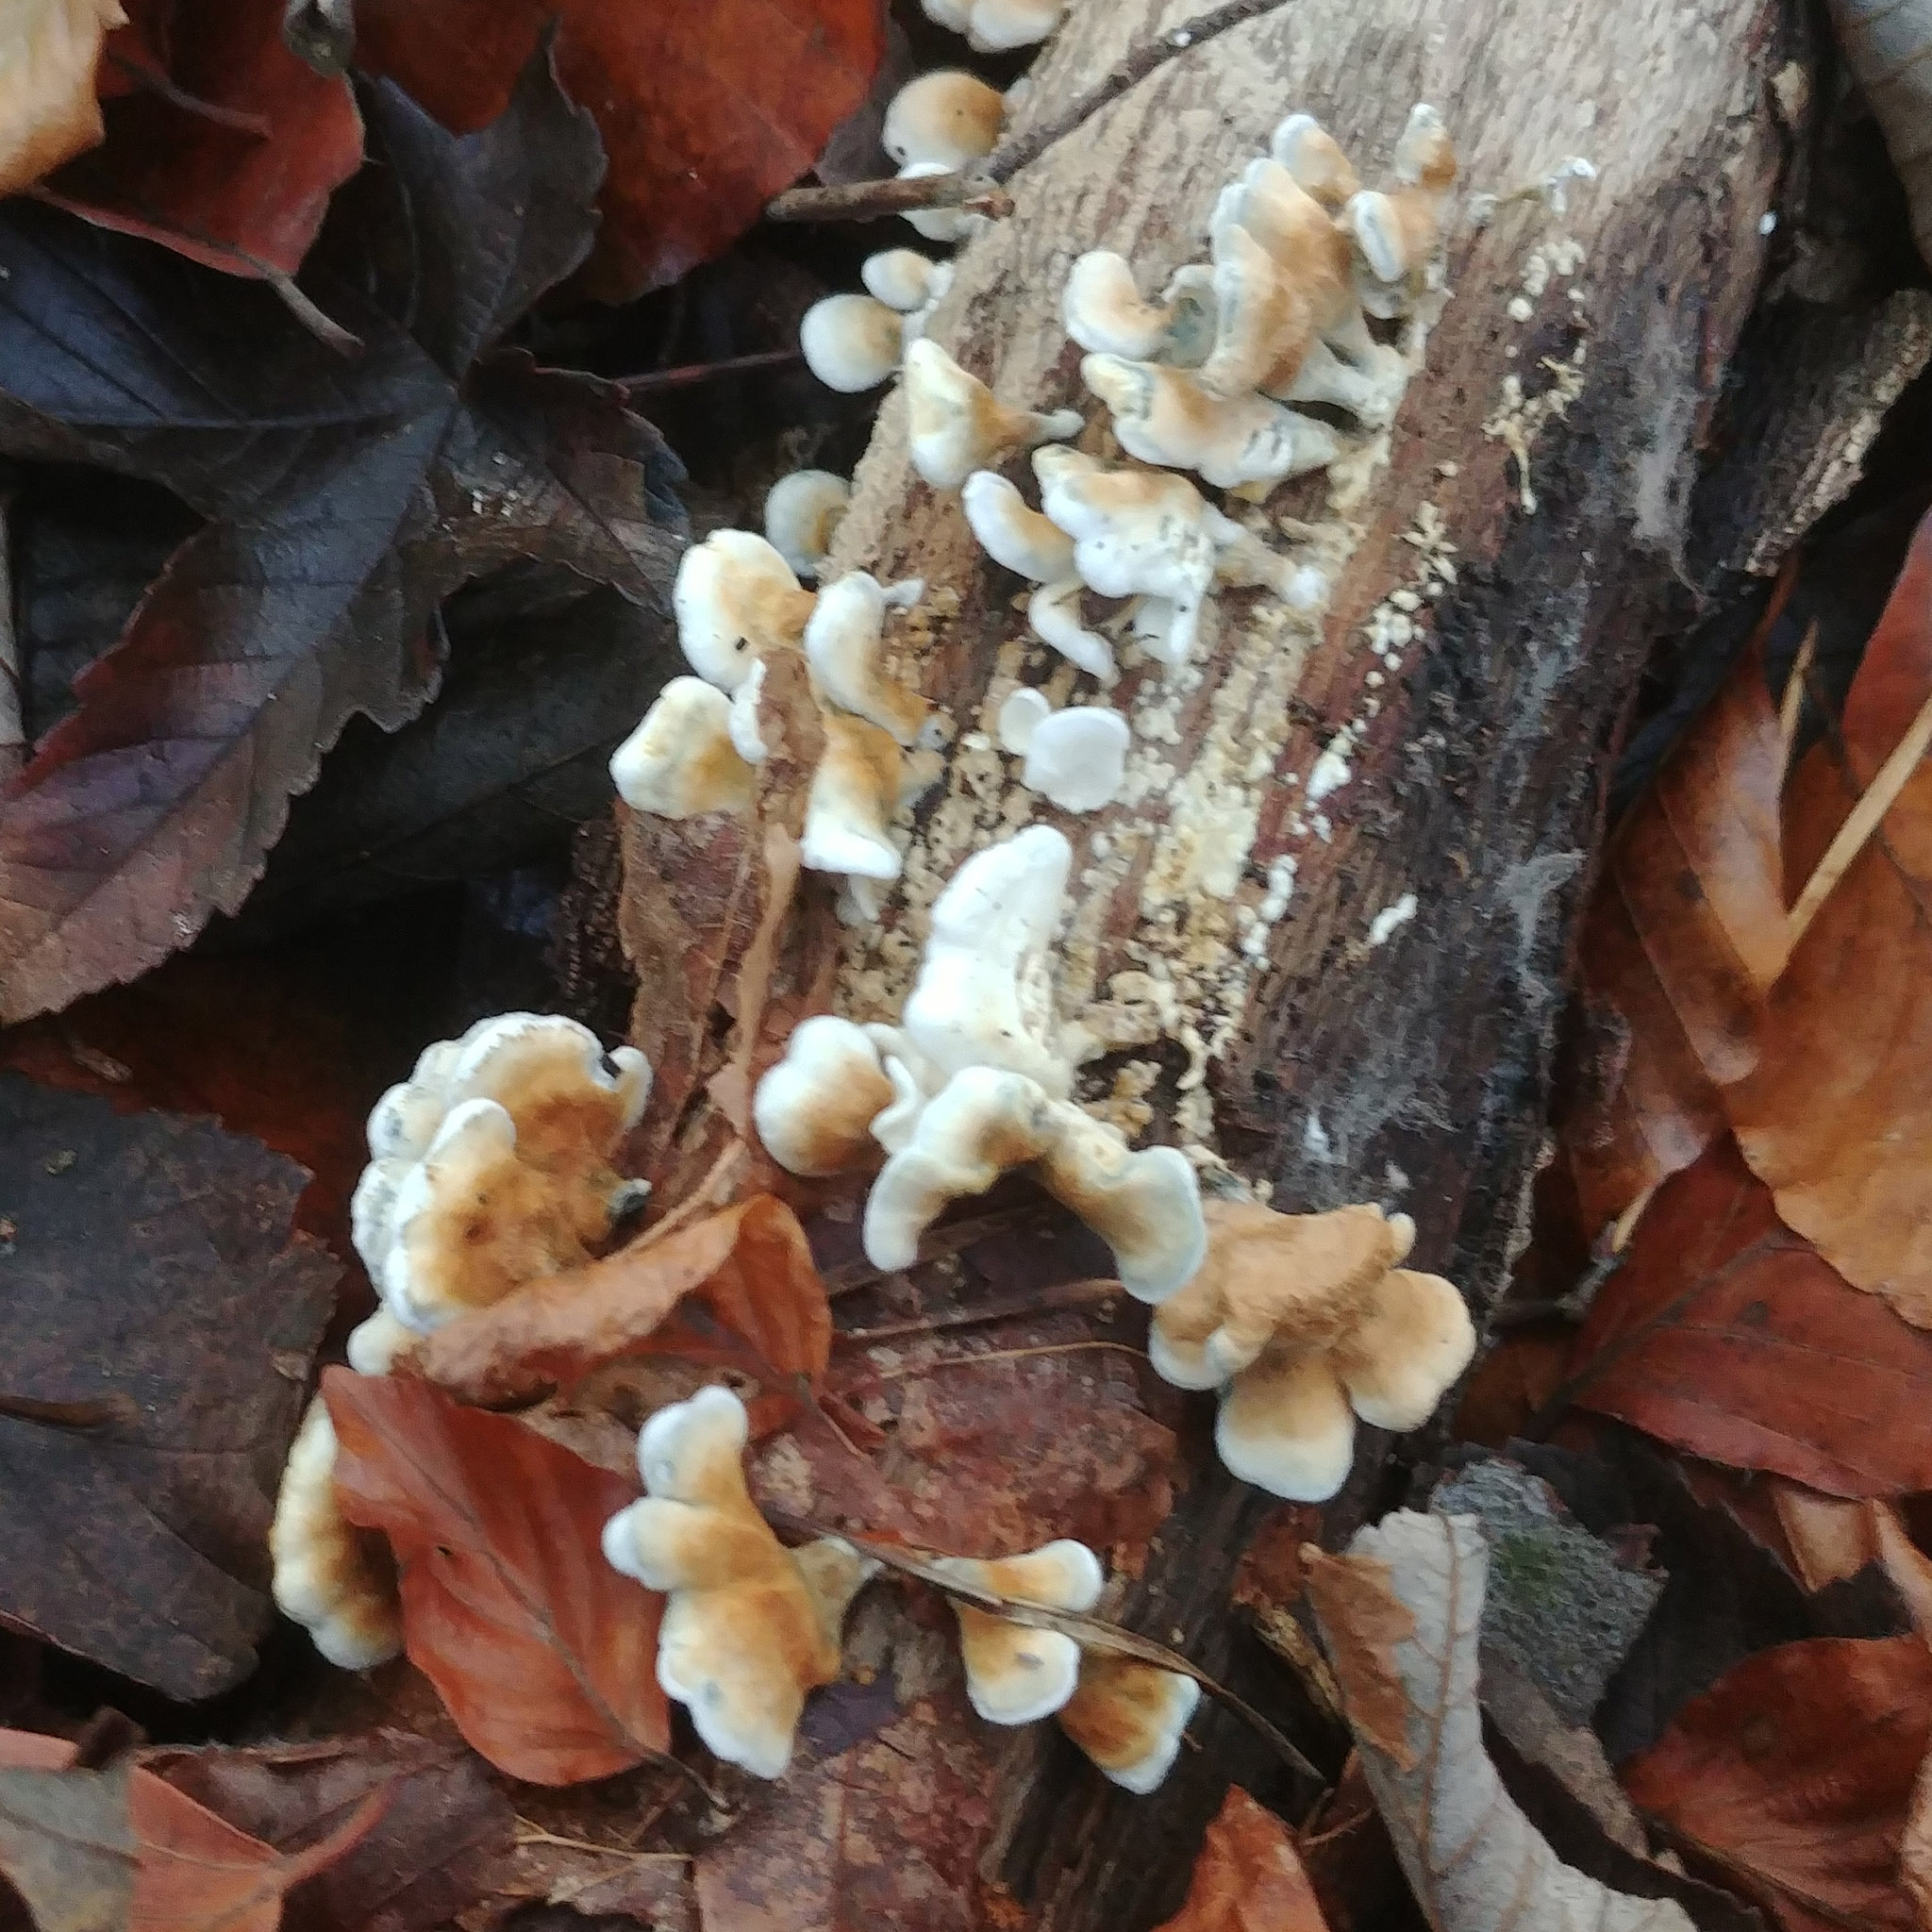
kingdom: Fungi
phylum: Basidiomycota
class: Agaricomycetes
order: Amylocorticiales
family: Amylocorticiaceae
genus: Plicaturopsis
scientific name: Plicaturopsis crispa
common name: Crimped gill
